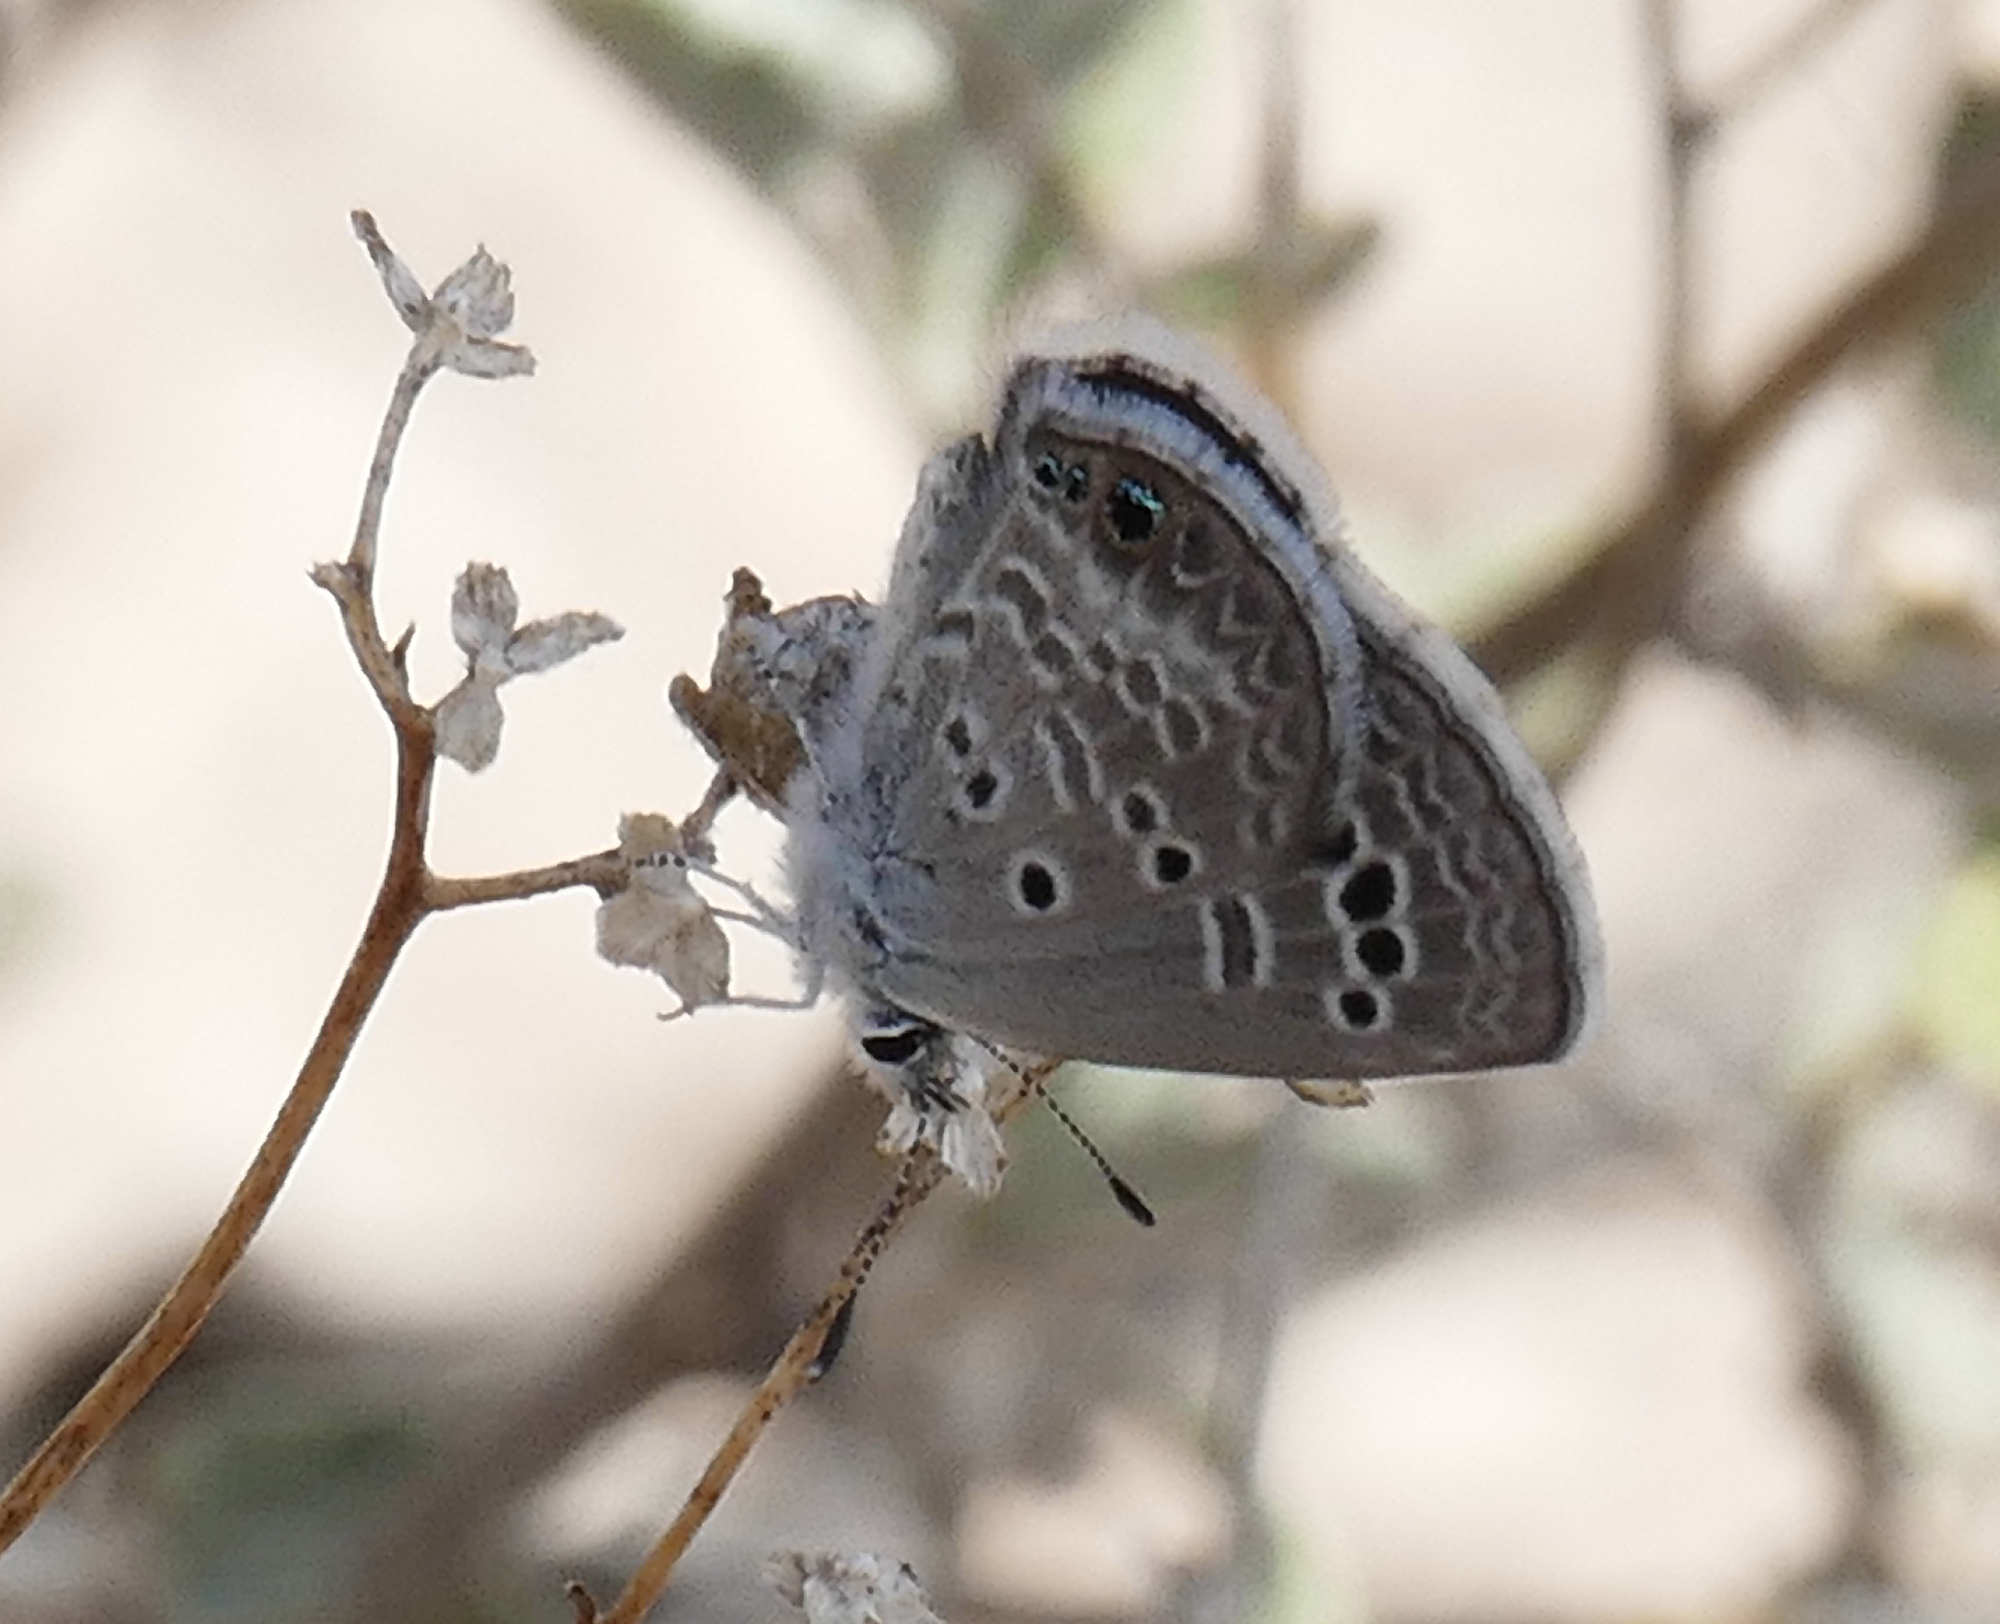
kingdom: Animalia
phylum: Arthropoda
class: Insecta
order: Lepidoptera
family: Lycaenidae
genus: Echinargus
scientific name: Echinargus isola
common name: Reakirt's blue
